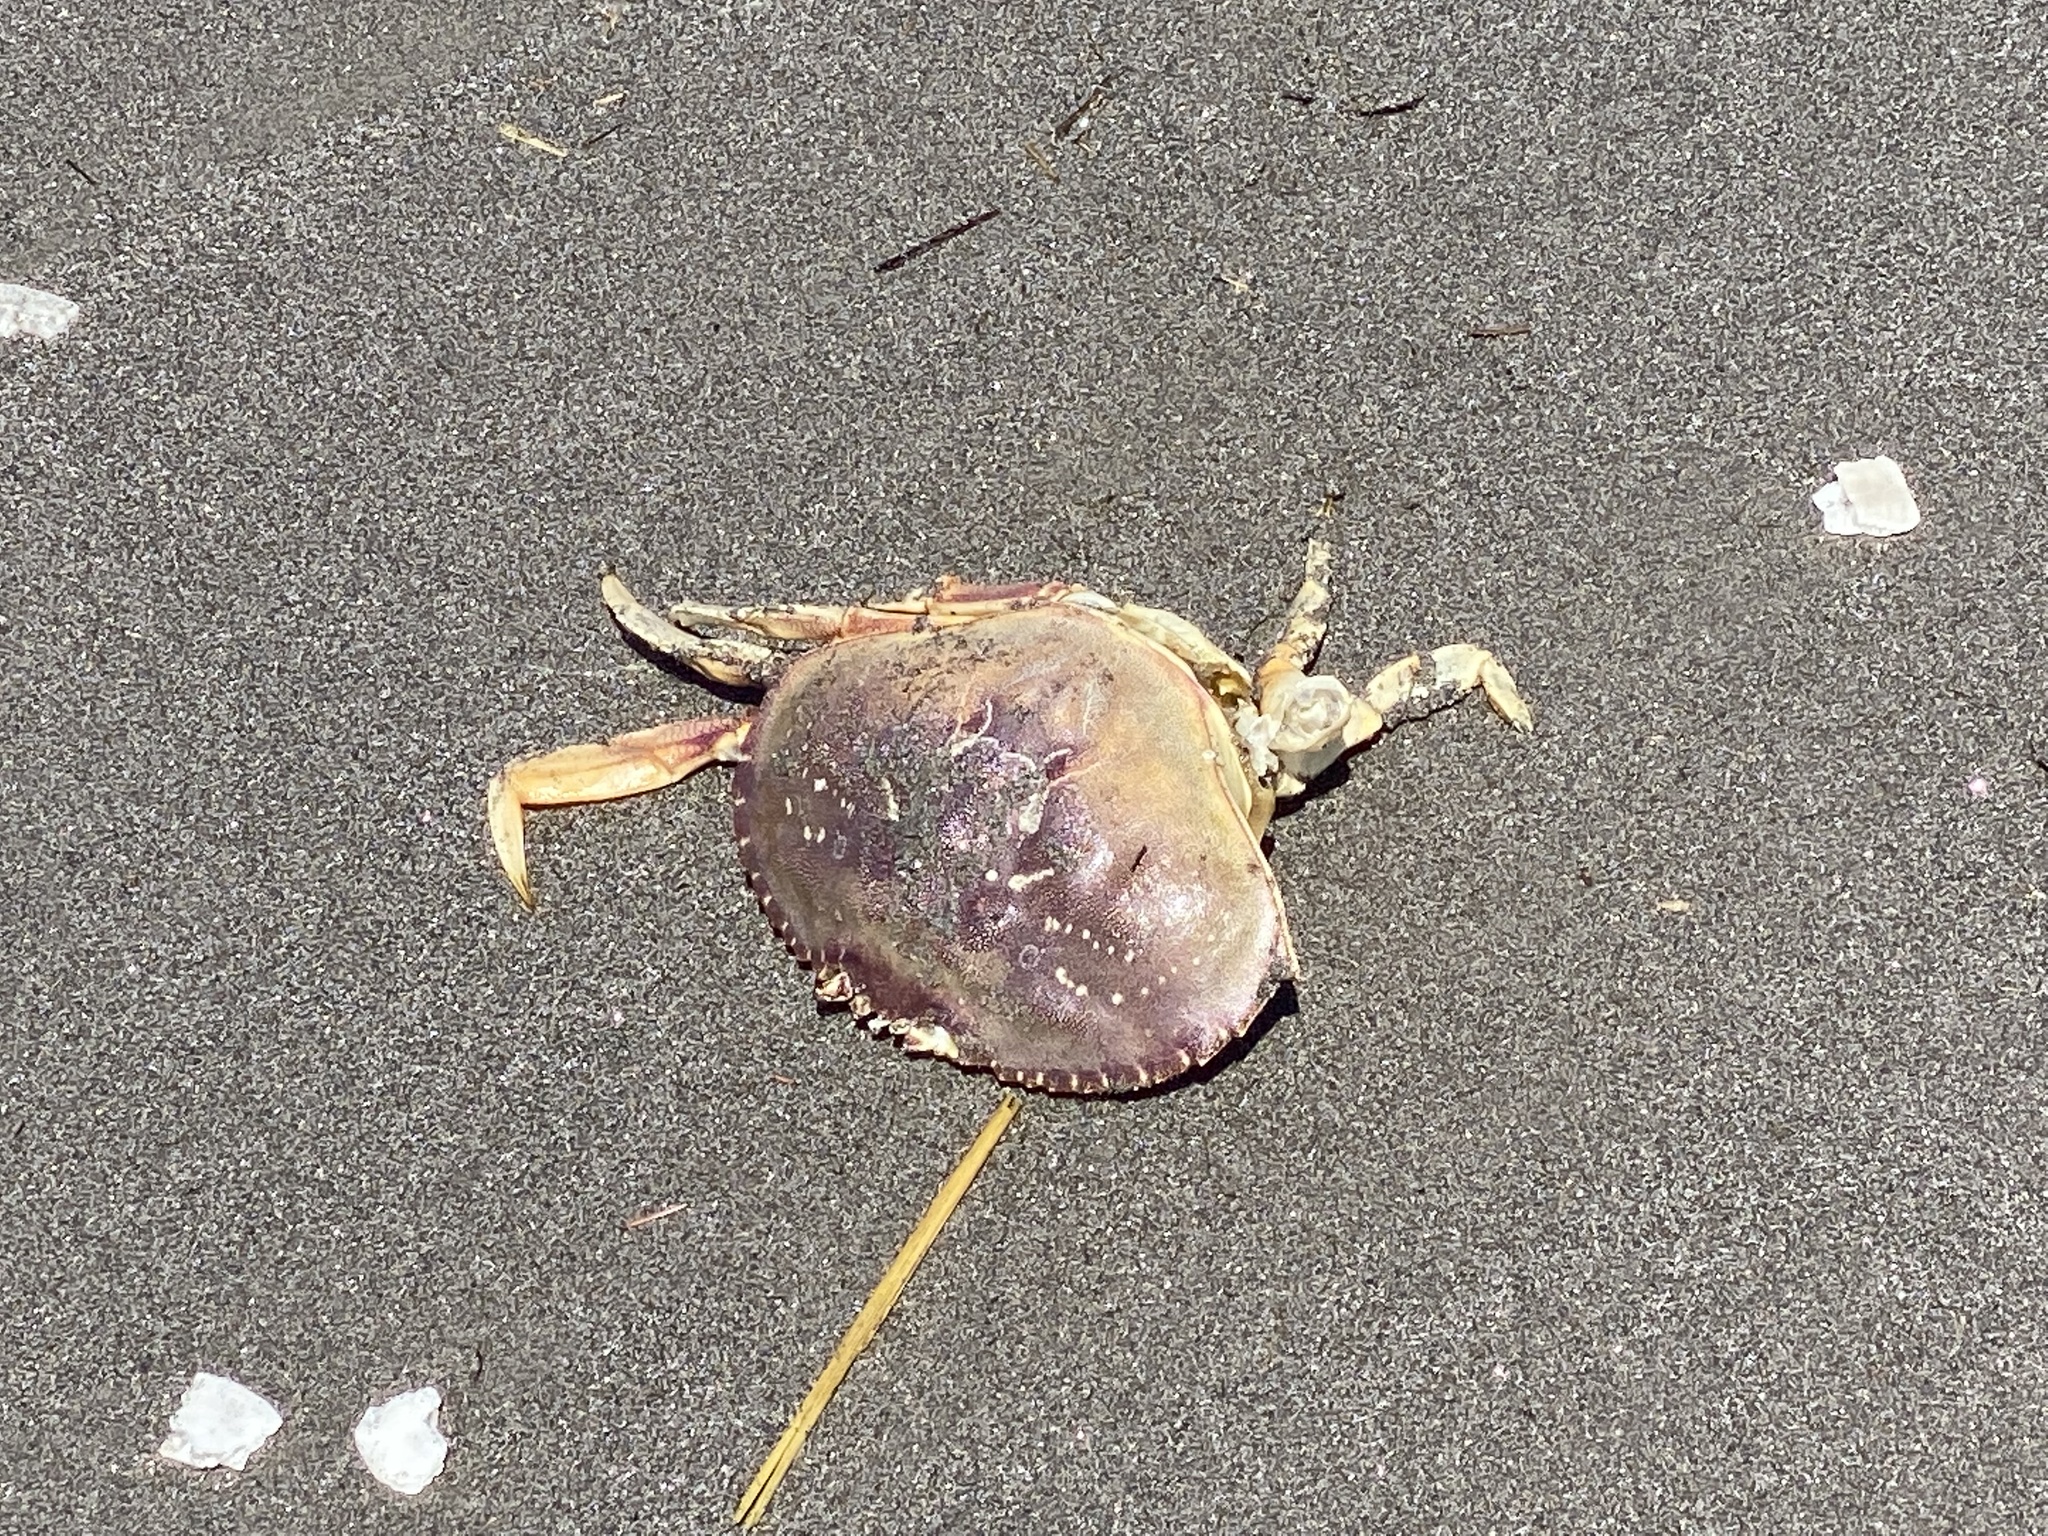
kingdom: Animalia
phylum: Arthropoda
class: Malacostraca
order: Decapoda
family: Cancridae
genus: Metacarcinus
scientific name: Metacarcinus magister
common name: Californian crab
